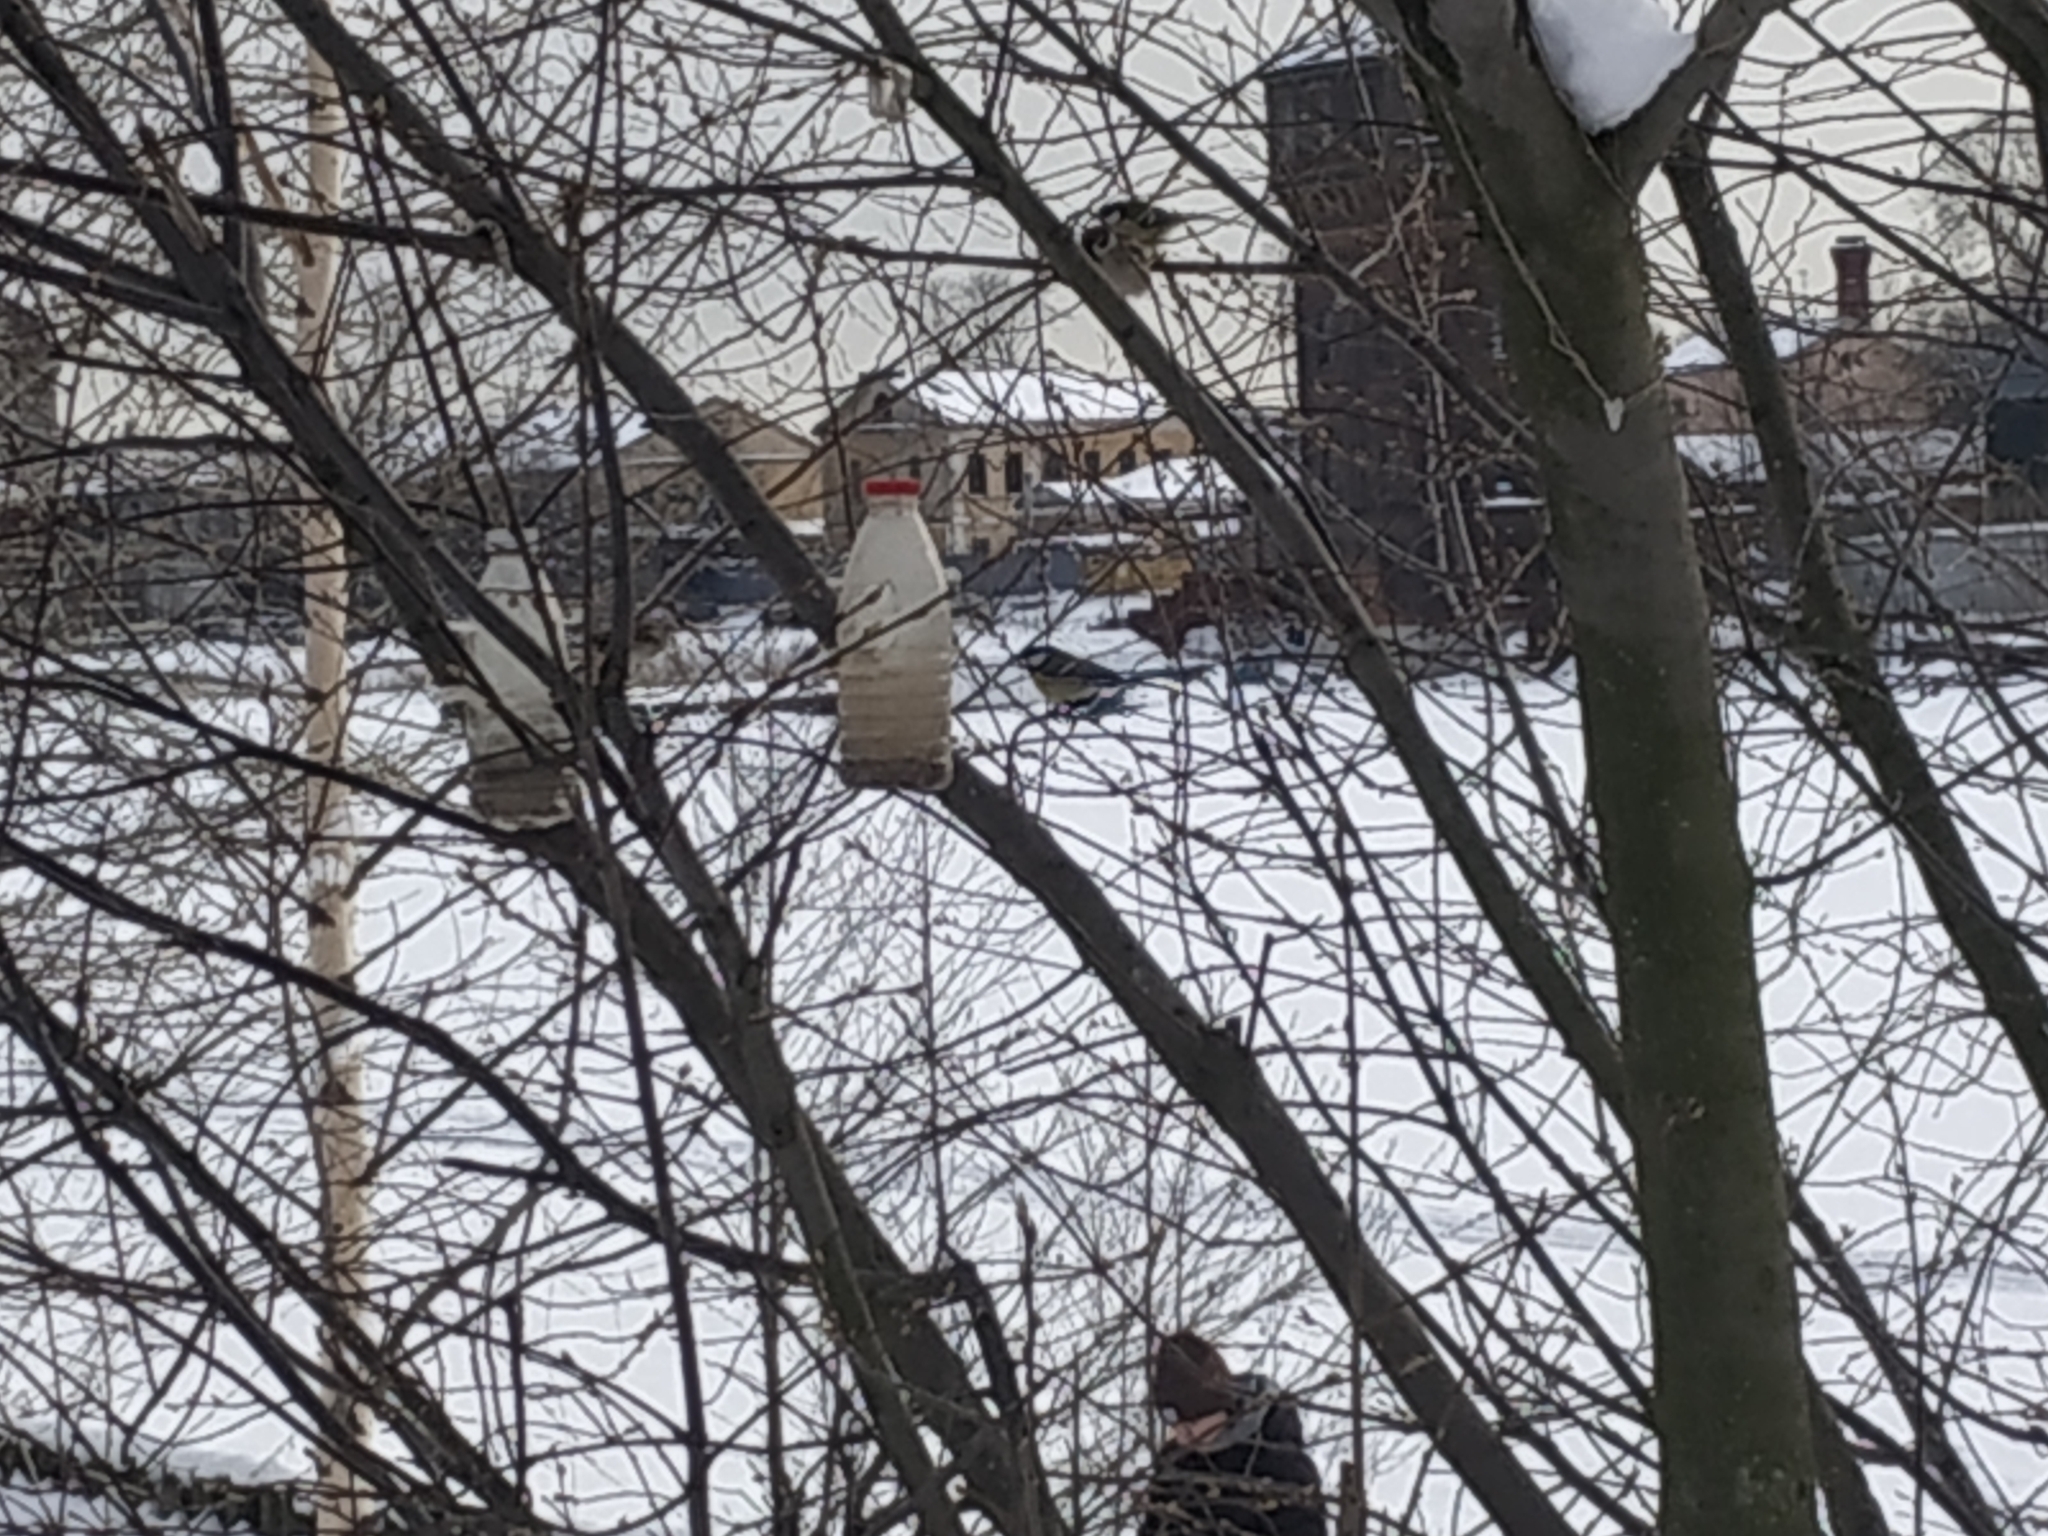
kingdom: Animalia
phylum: Chordata
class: Aves
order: Passeriformes
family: Passeridae
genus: Passer
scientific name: Passer montanus
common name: Eurasian tree sparrow
